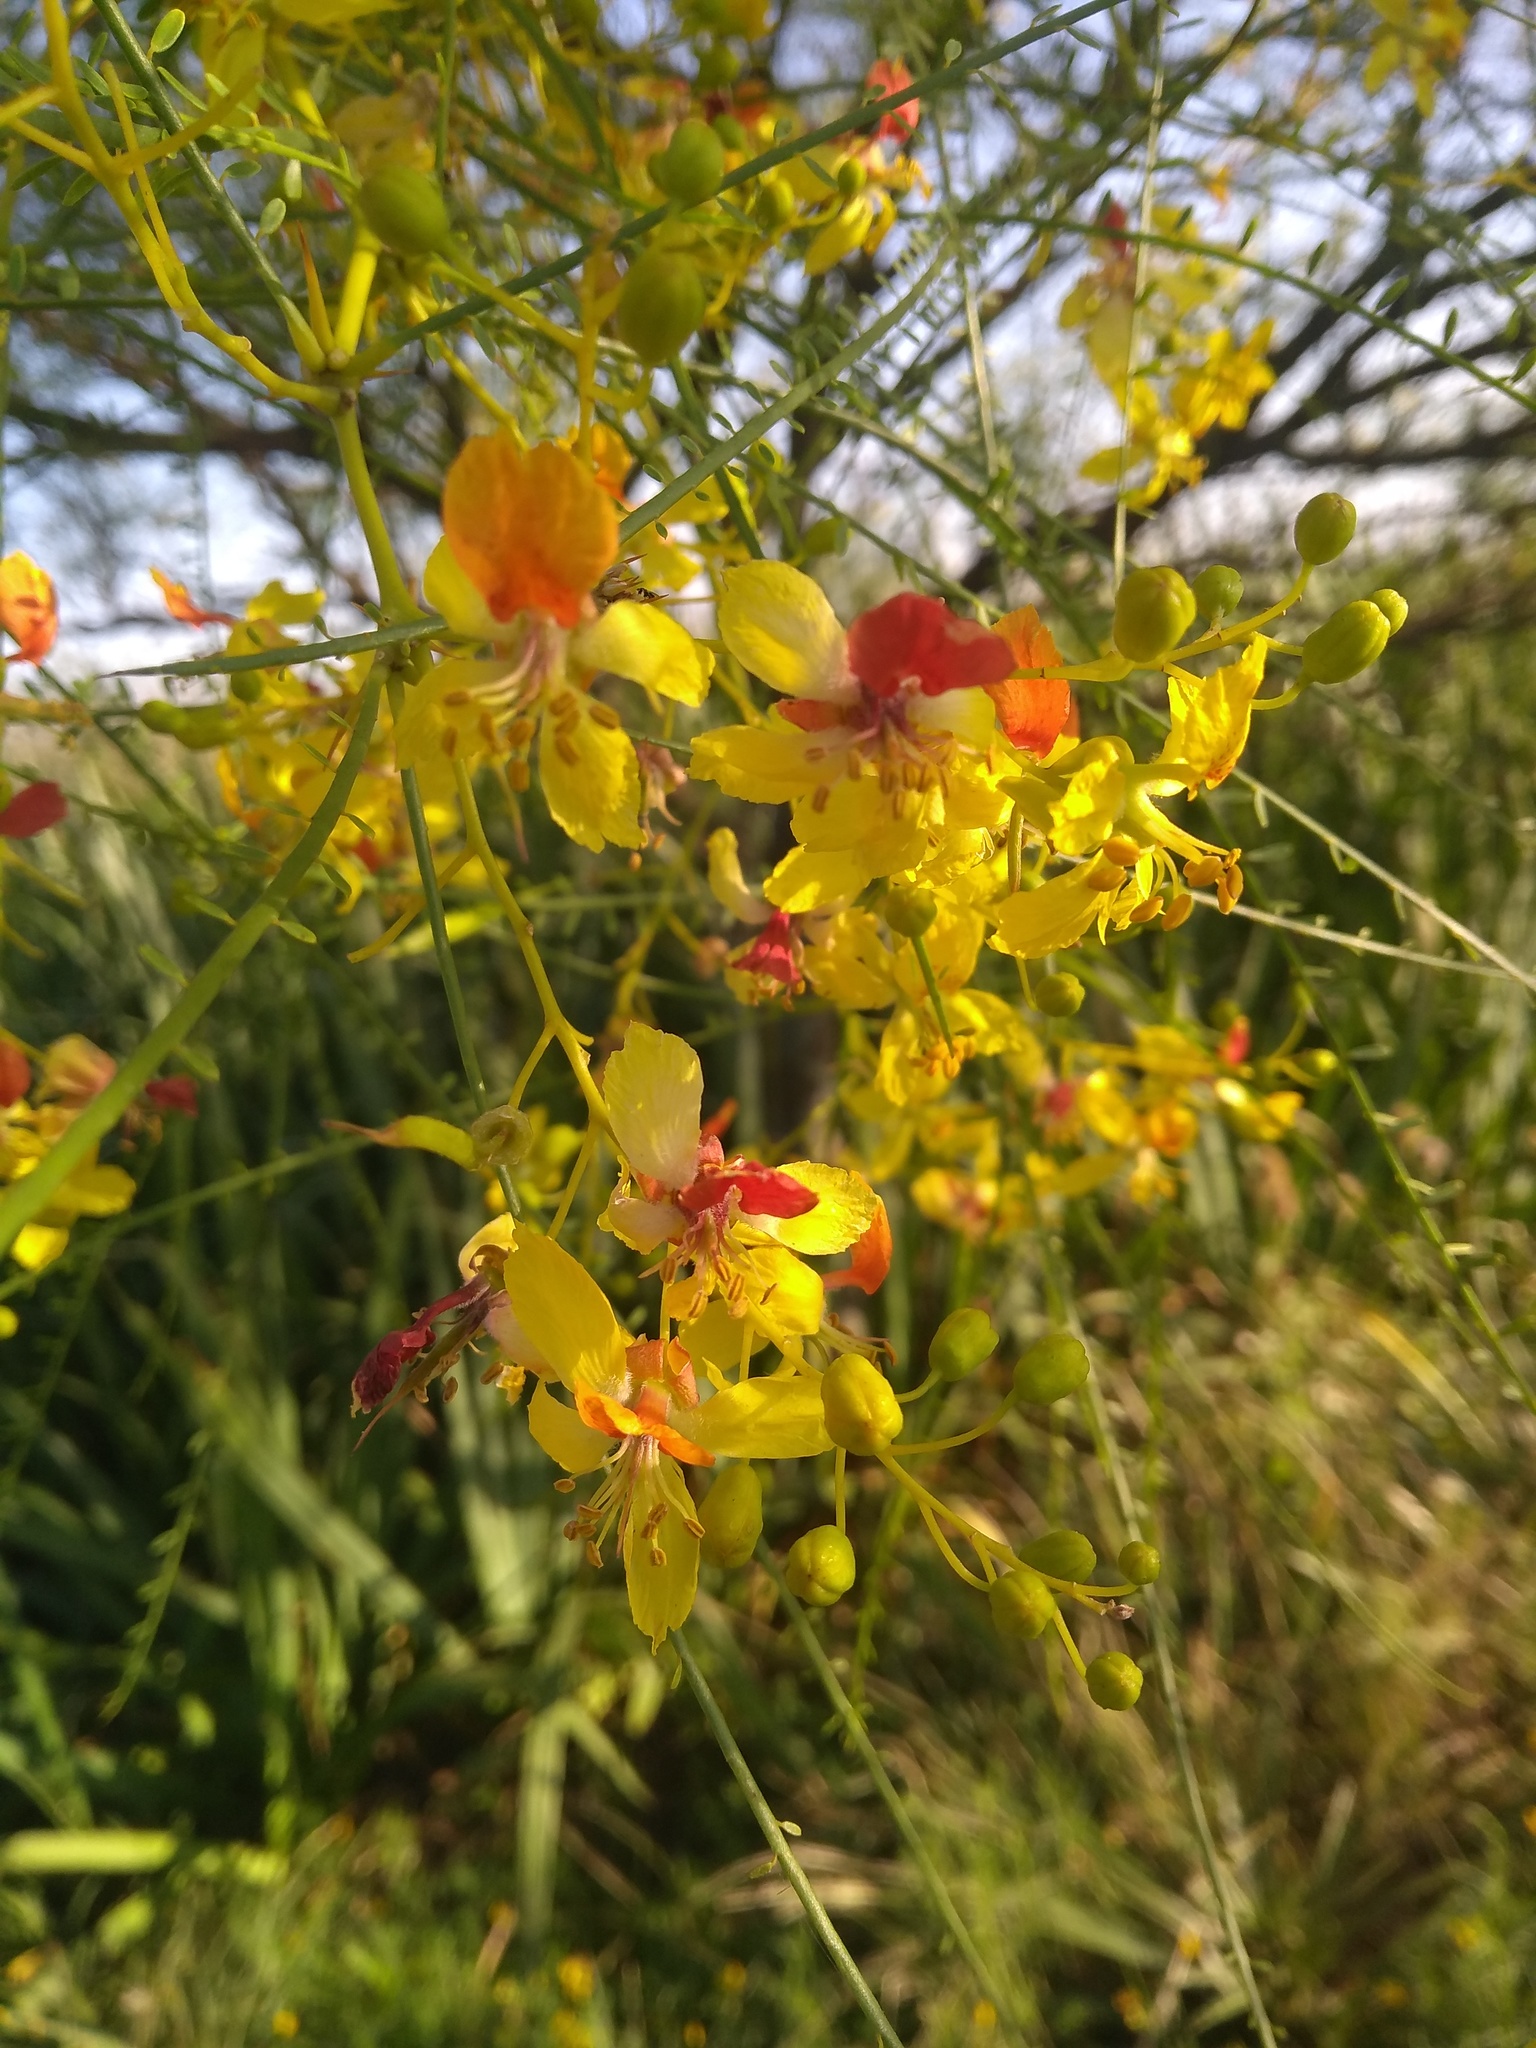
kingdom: Plantae
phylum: Tracheophyta
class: Magnoliopsida
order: Fabales
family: Fabaceae
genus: Parkinsonia
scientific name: Parkinsonia aculeata
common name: Jerusalem thorn
